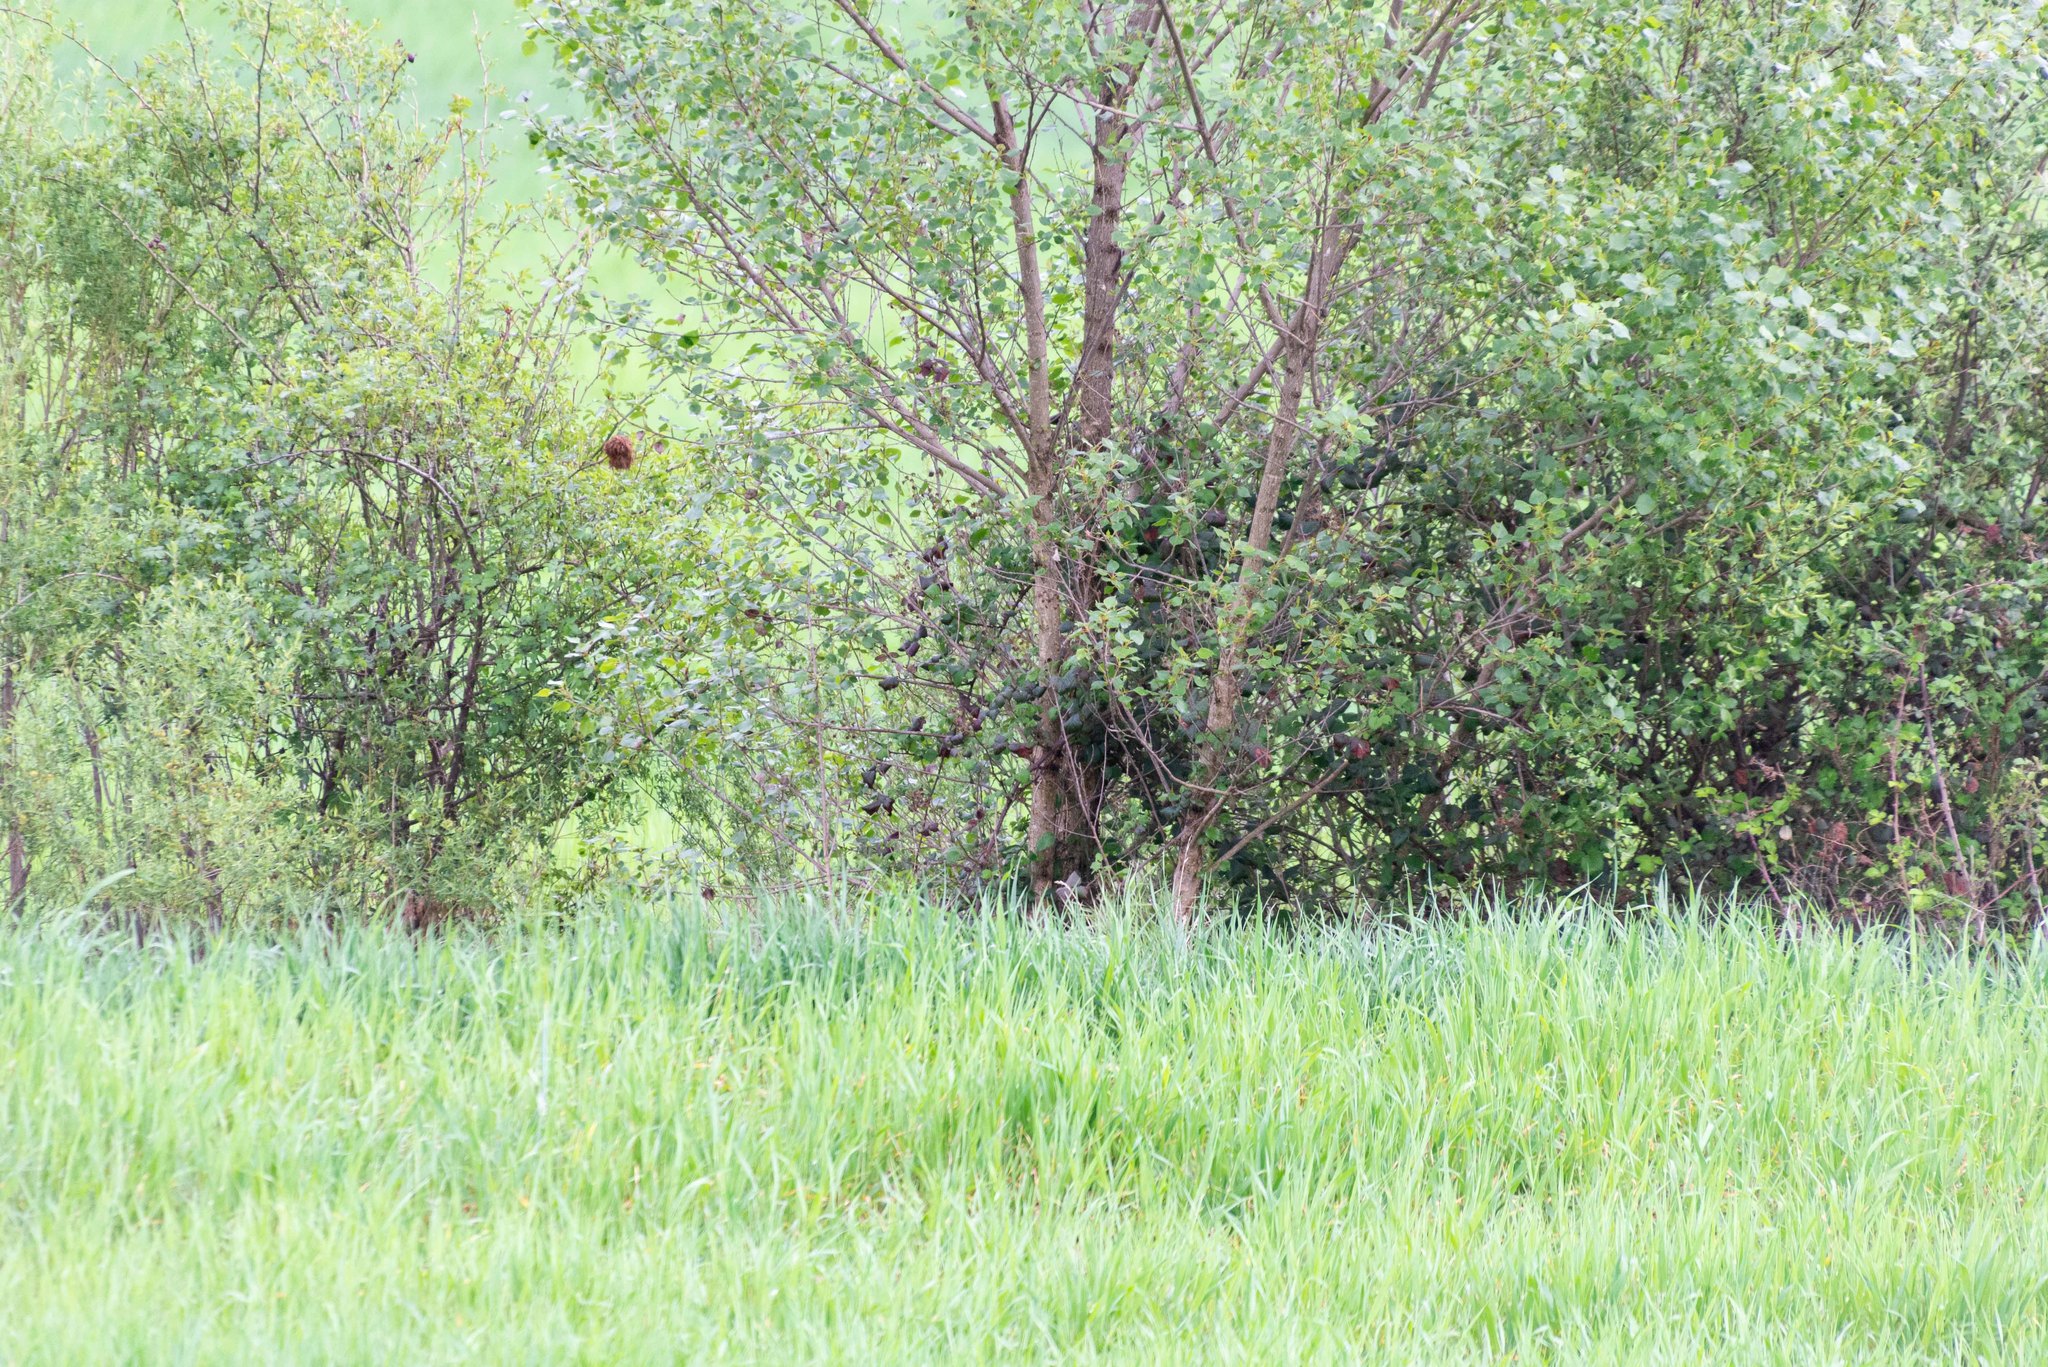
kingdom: Animalia
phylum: Chordata
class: Aves
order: Columbiformes
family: Columbidae
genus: Streptopelia
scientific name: Streptopelia turtur
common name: European turtle dove
